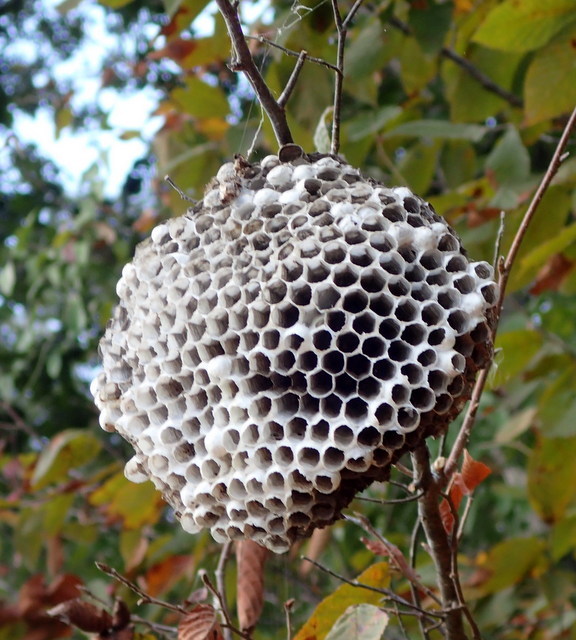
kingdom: Animalia
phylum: Arthropoda
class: Insecta
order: Hymenoptera
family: Eumenidae
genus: Polistes
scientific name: Polistes
